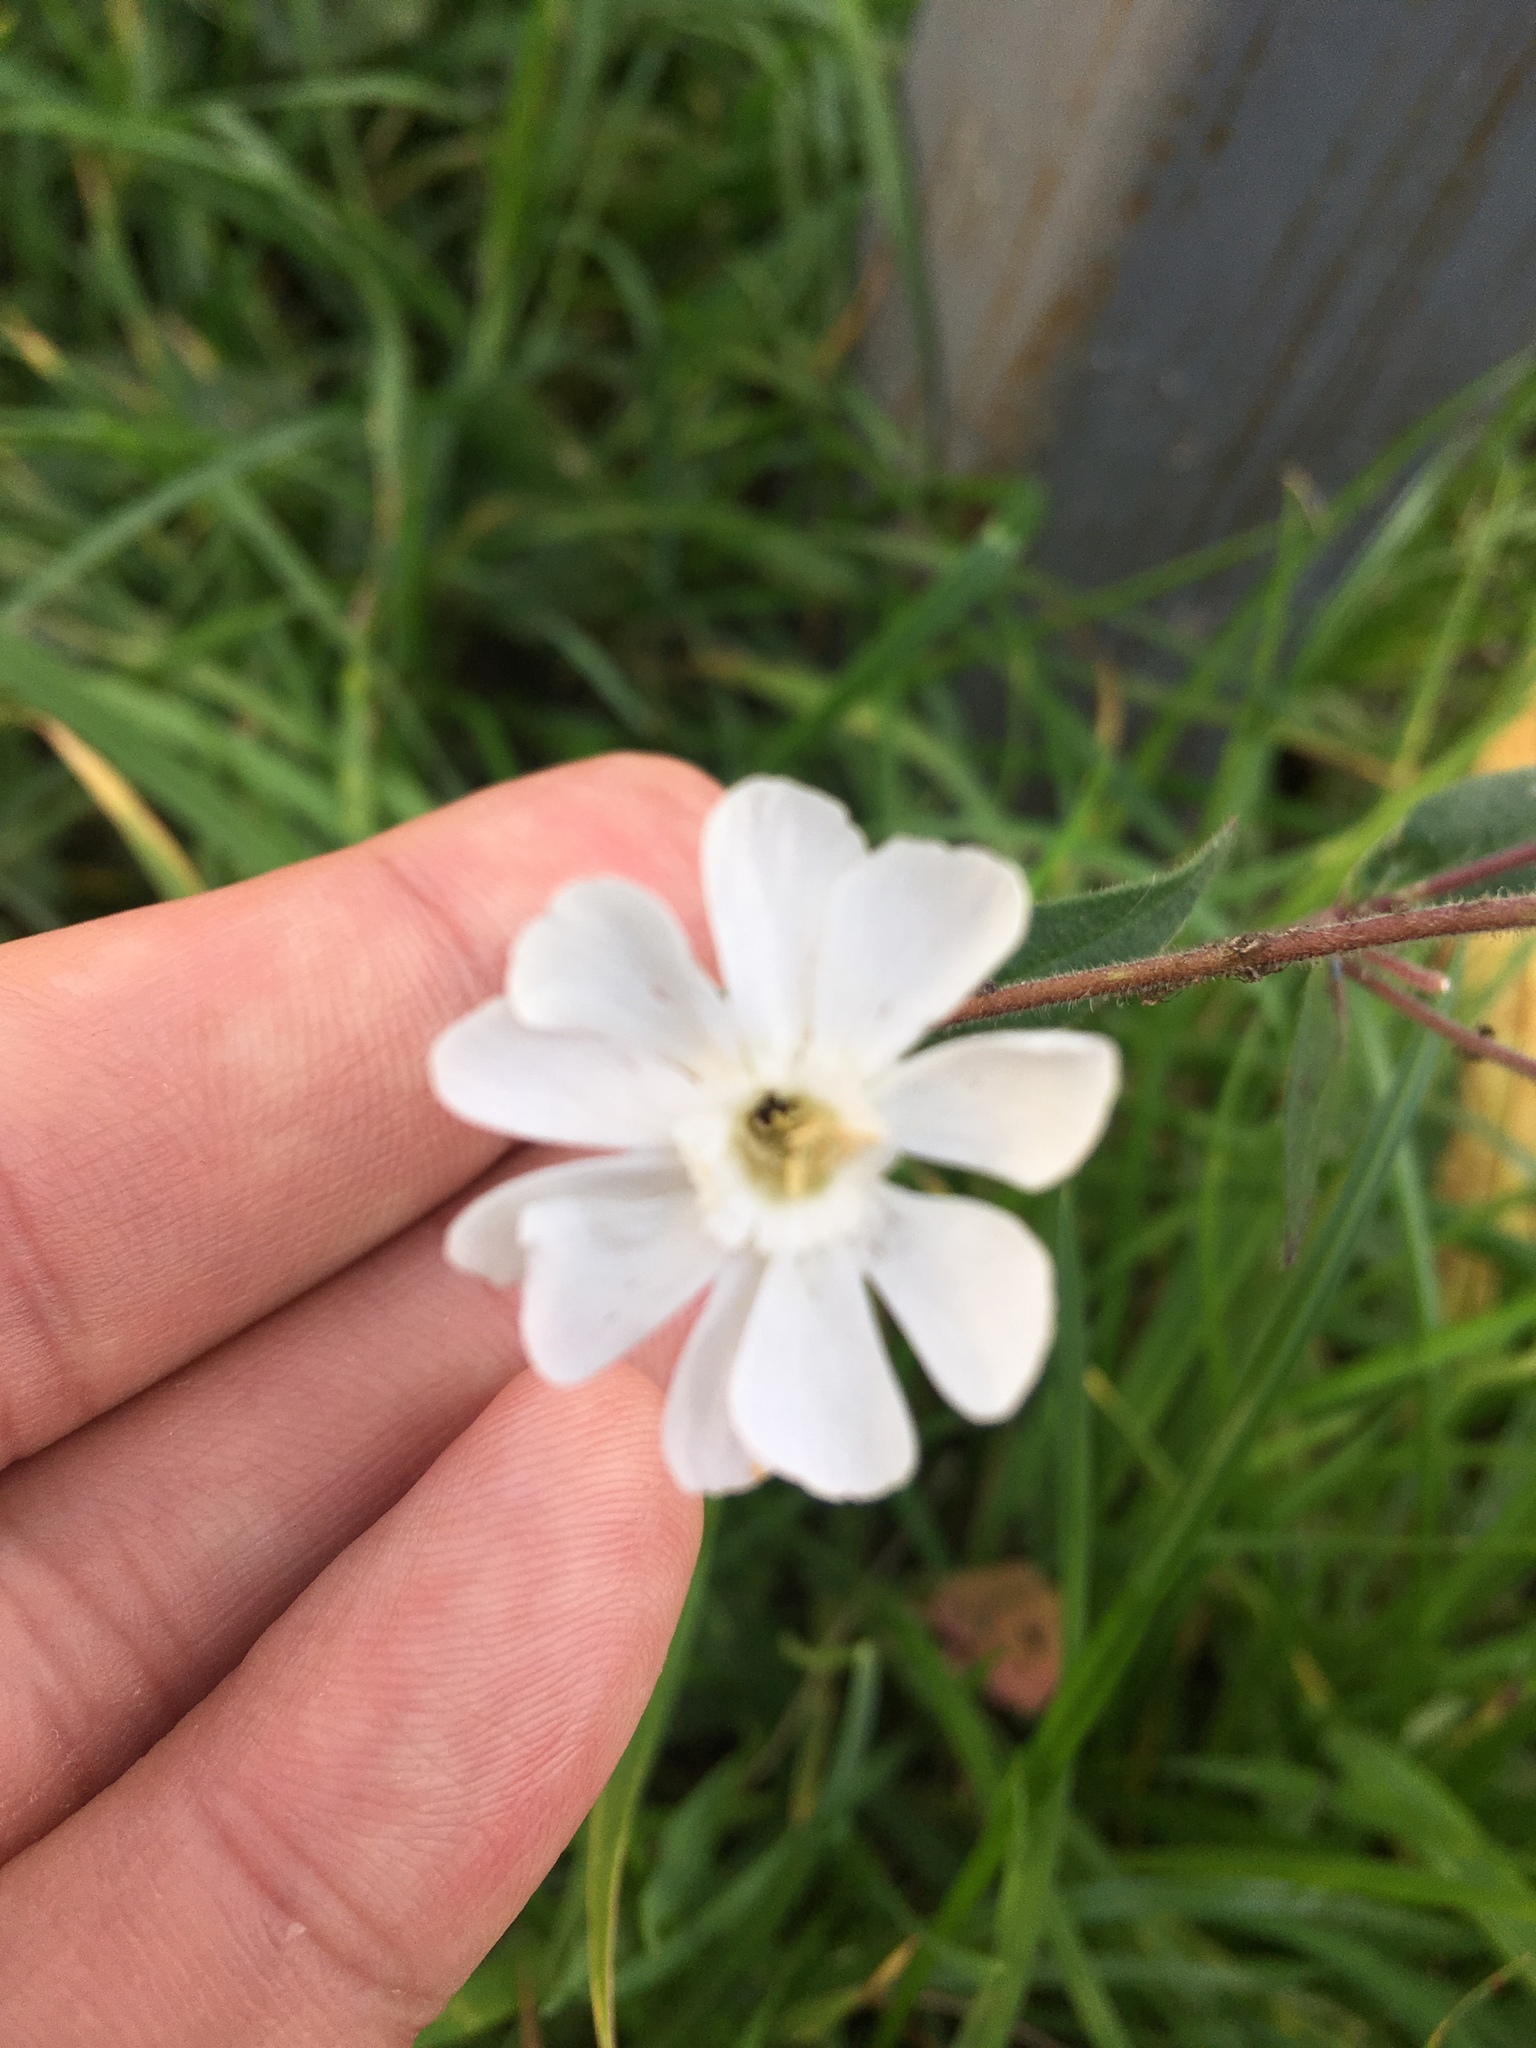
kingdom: Plantae
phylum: Tracheophyta
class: Magnoliopsida
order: Caryophyllales
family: Caryophyllaceae
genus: Silene
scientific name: Silene latifolia
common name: White campion
